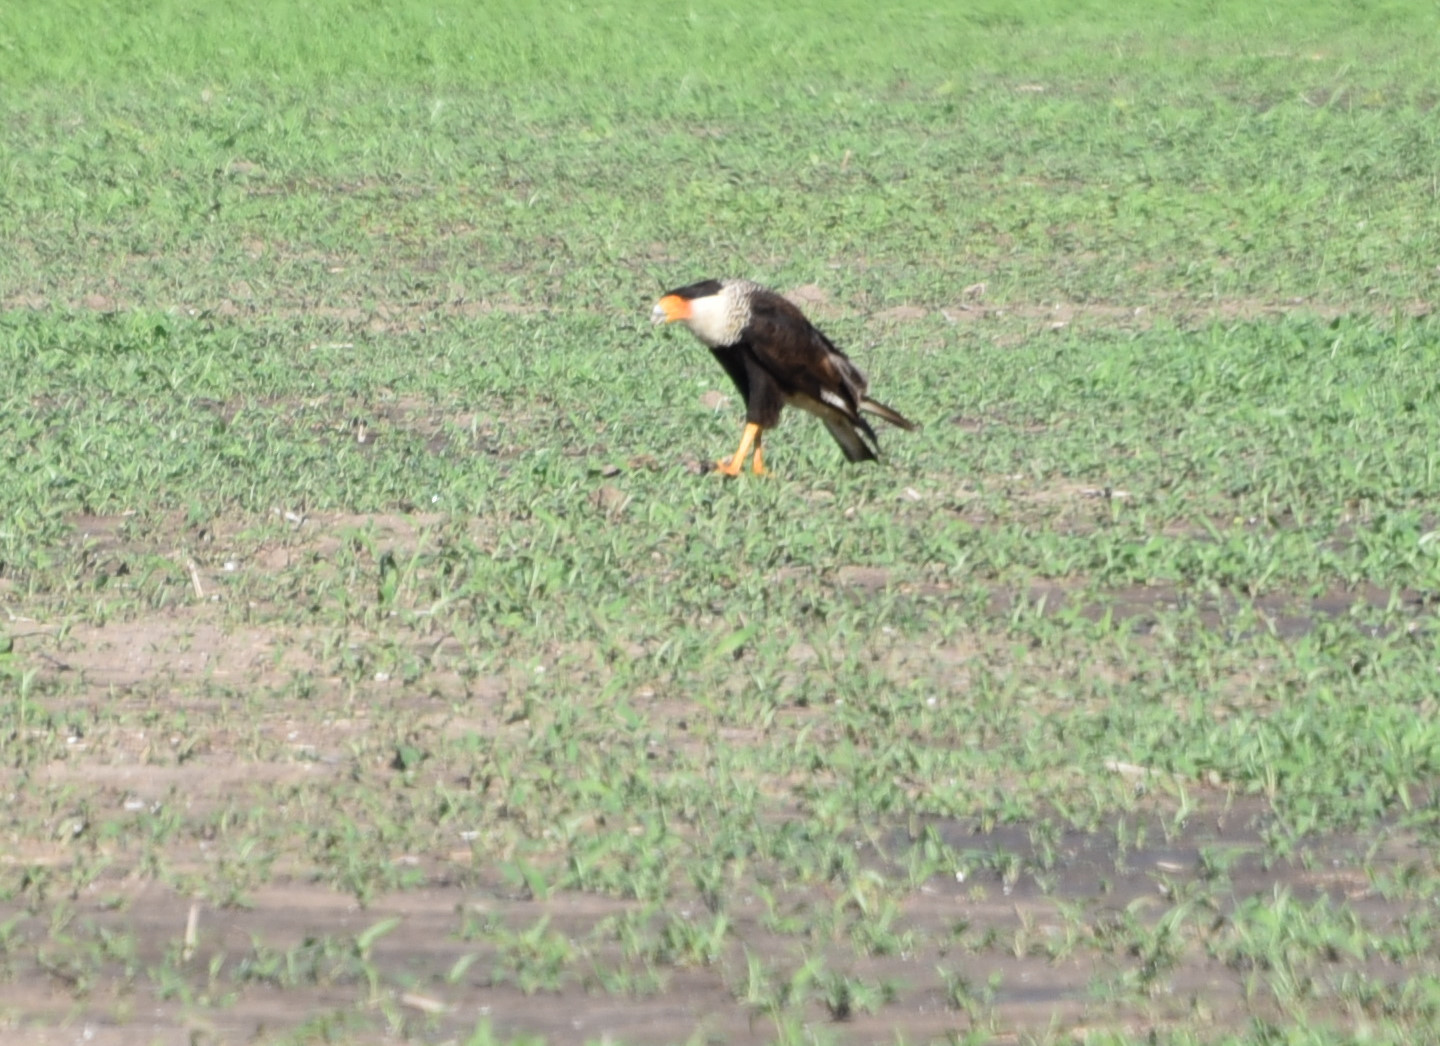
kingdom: Animalia
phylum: Chordata
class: Aves
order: Falconiformes
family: Falconidae
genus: Caracara
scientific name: Caracara plancus
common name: Southern caracara
